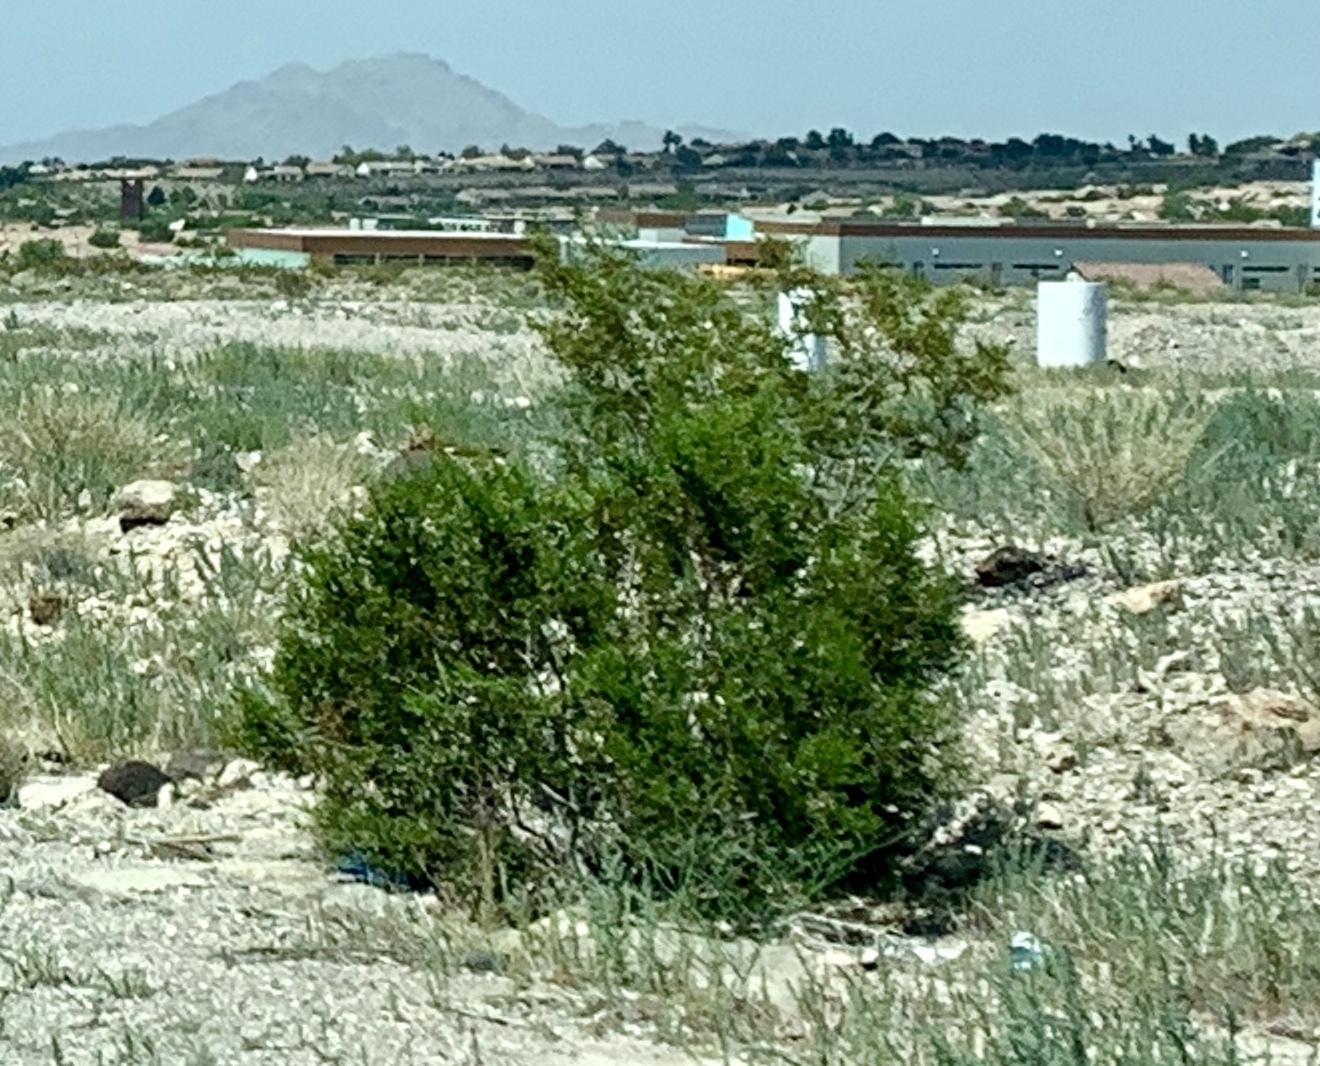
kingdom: Plantae
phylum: Tracheophyta
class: Magnoliopsida
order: Zygophyllales
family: Zygophyllaceae
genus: Larrea
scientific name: Larrea tridentata
